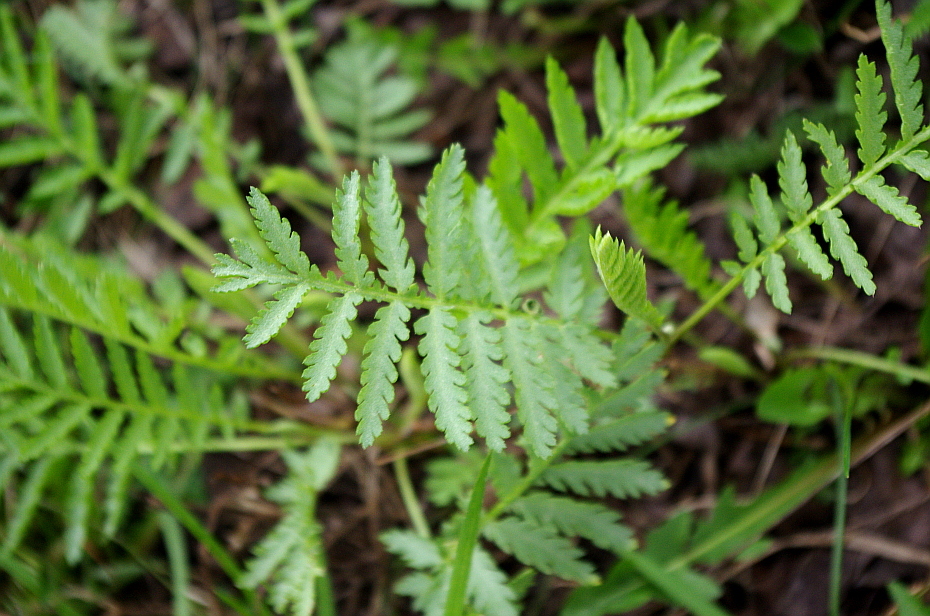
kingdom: Plantae
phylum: Tracheophyta
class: Magnoliopsida
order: Asterales
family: Asteraceae
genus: Tanacetum
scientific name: Tanacetum vulgare
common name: Common tansy
